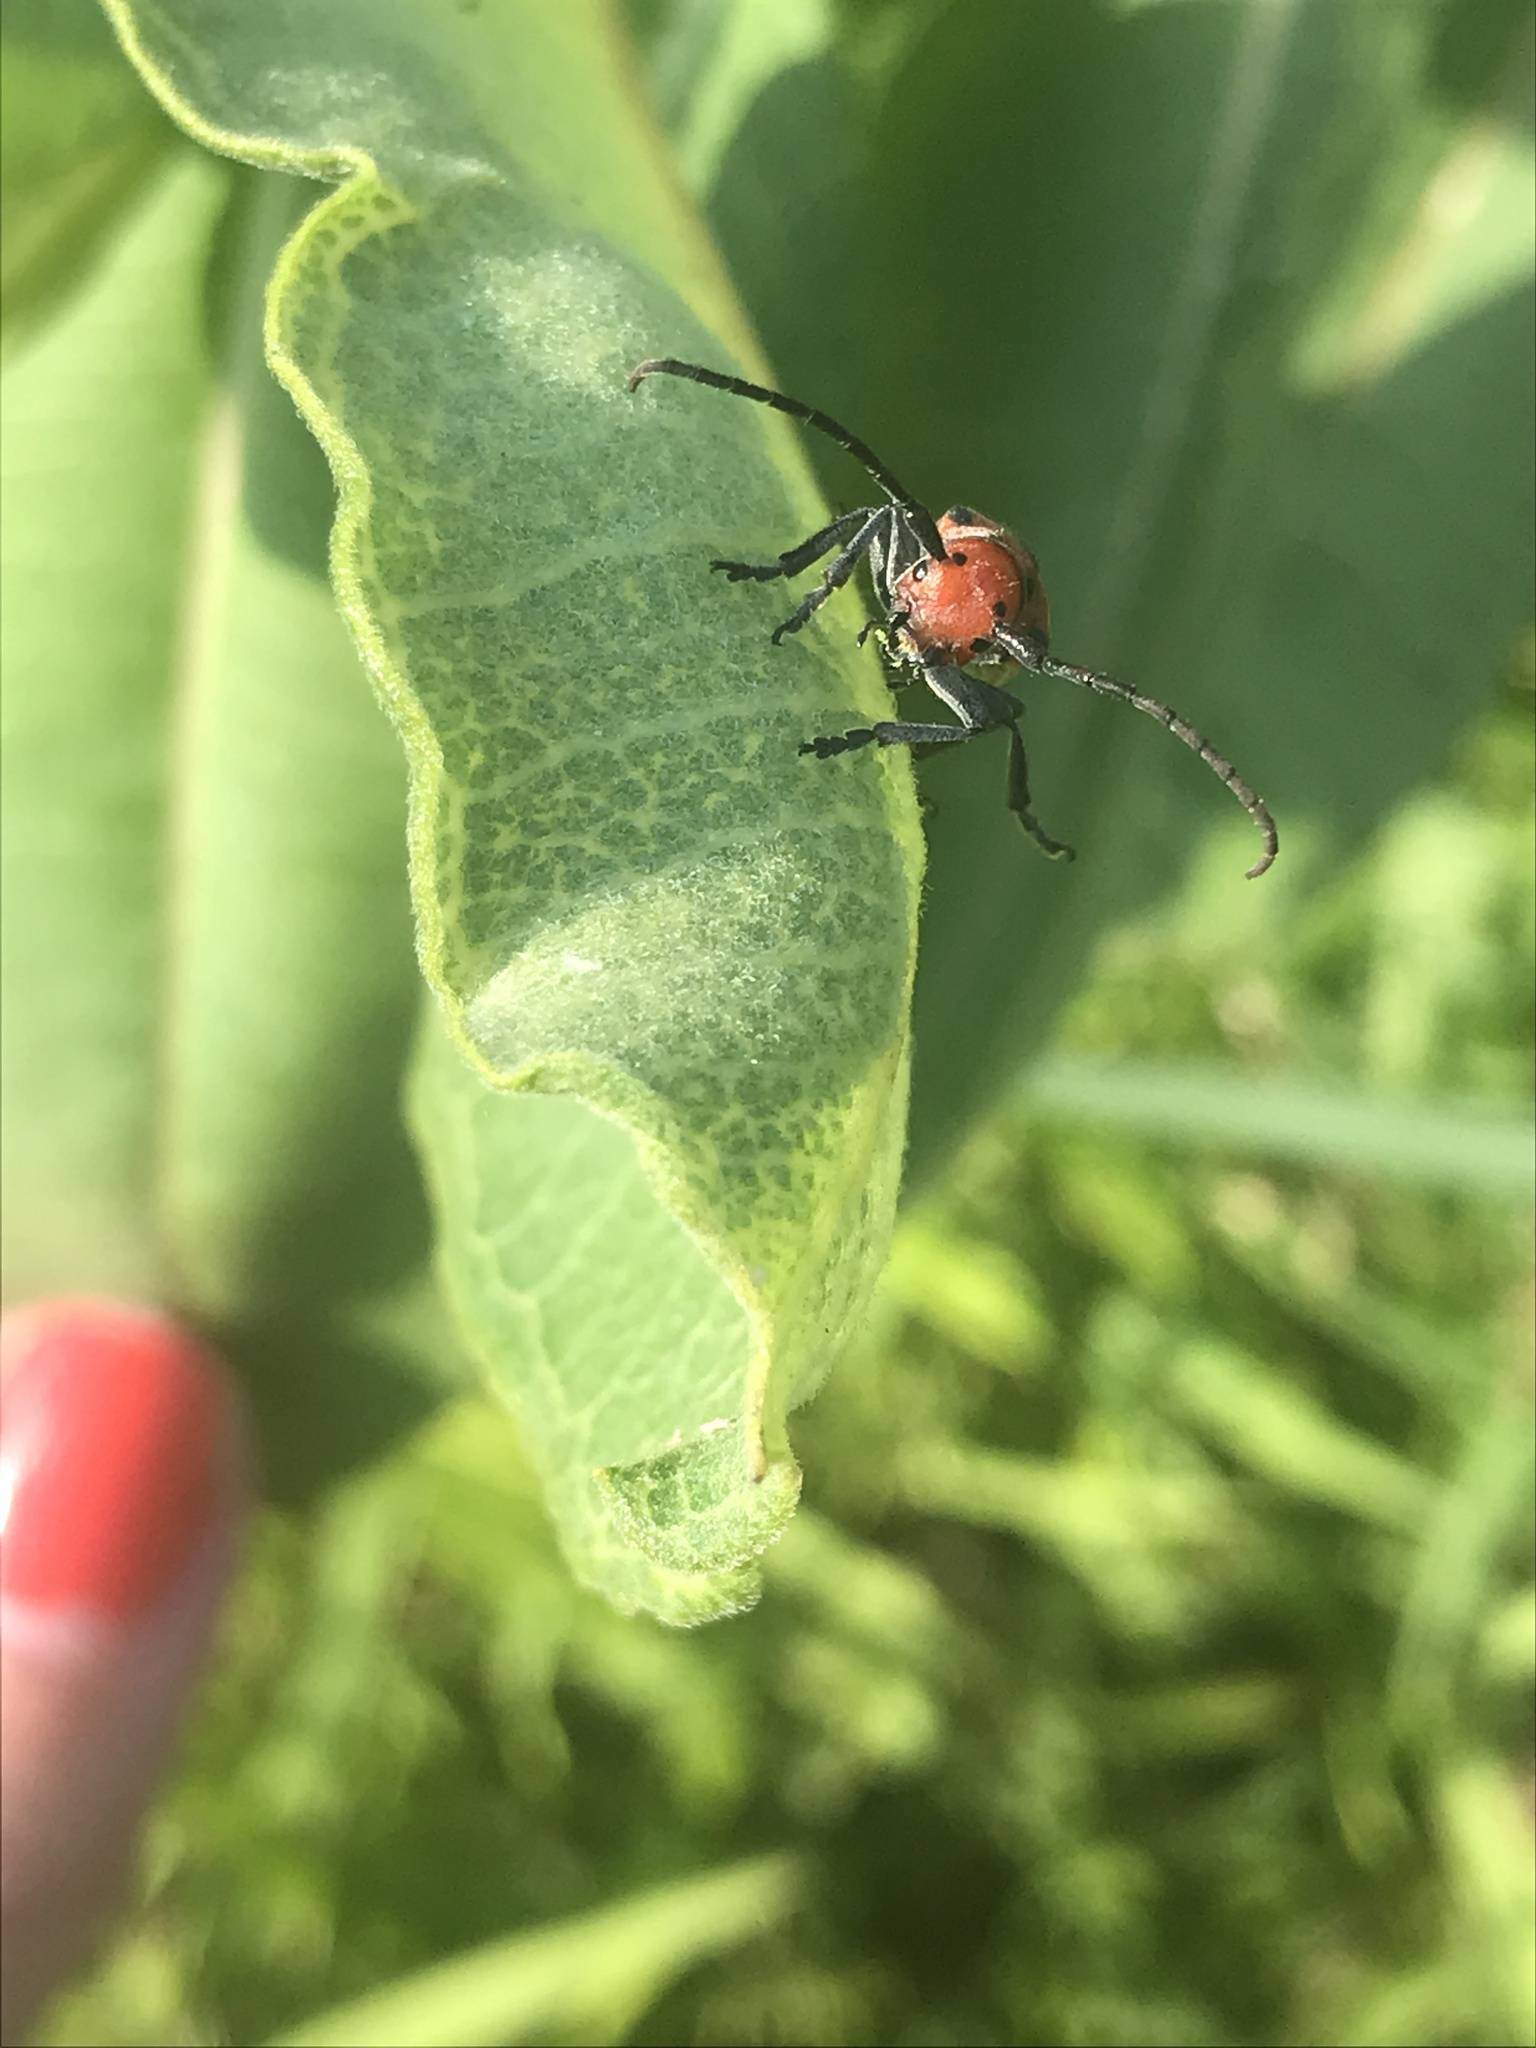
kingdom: Animalia
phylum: Arthropoda
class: Insecta
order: Coleoptera
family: Cerambycidae
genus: Tetraopes
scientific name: Tetraopes tetrophthalmus
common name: Red milkweed beetle
